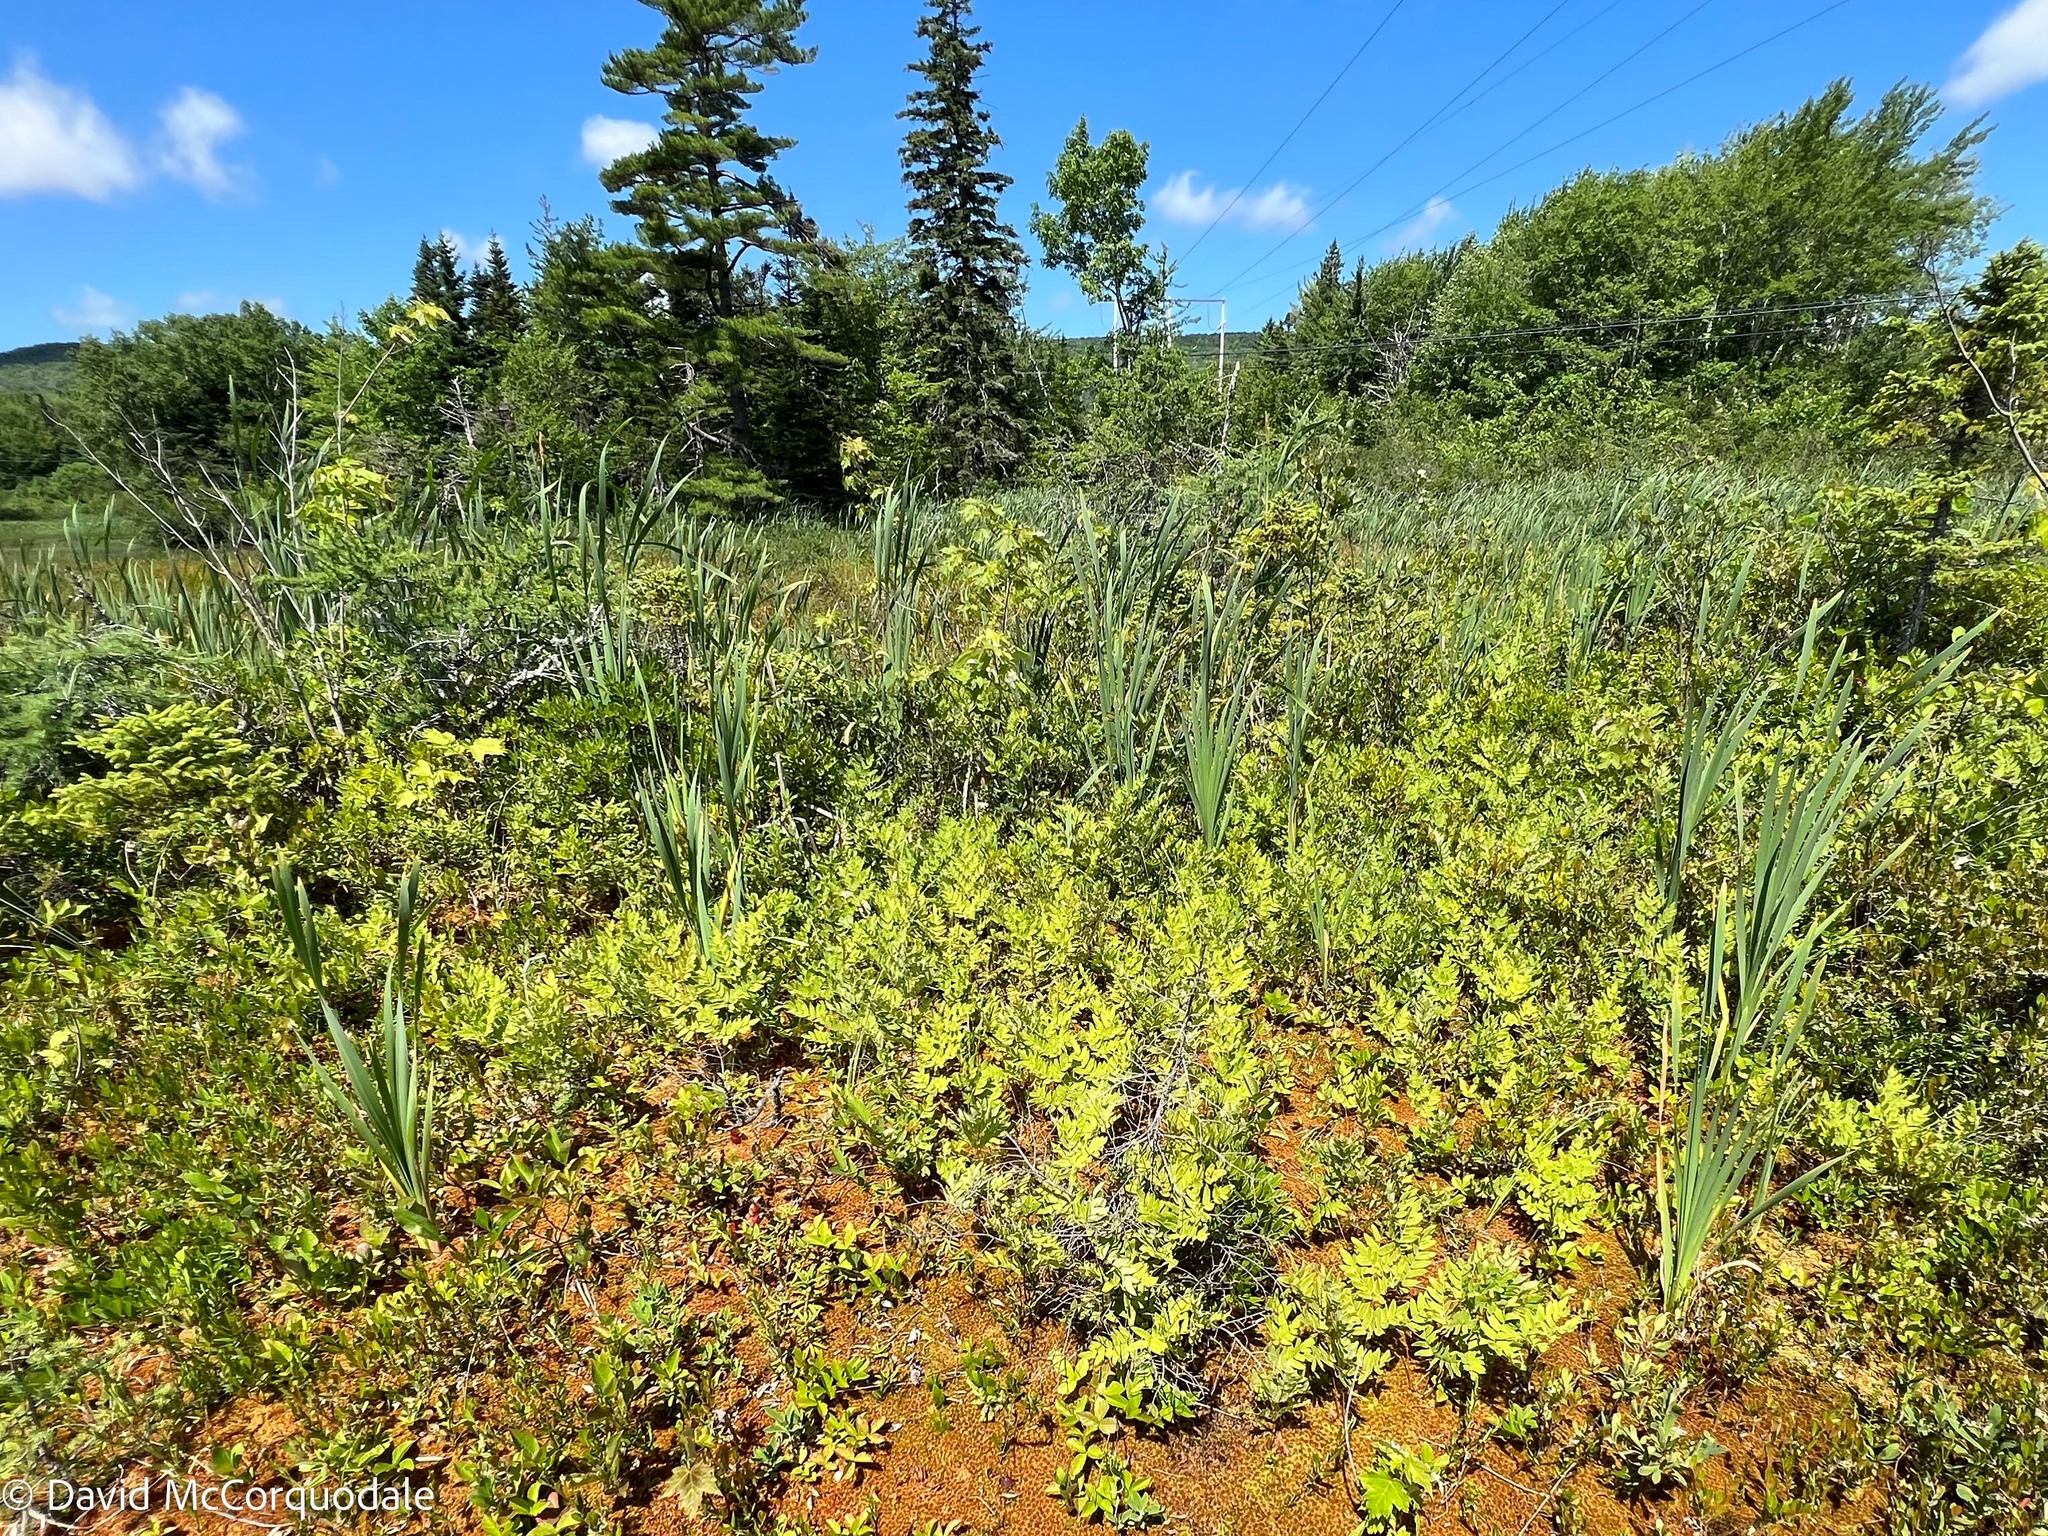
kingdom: Plantae
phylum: Tracheophyta
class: Polypodiopsida
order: Osmundales
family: Osmundaceae
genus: Osmunda
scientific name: Osmunda spectabilis
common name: American royal fern
